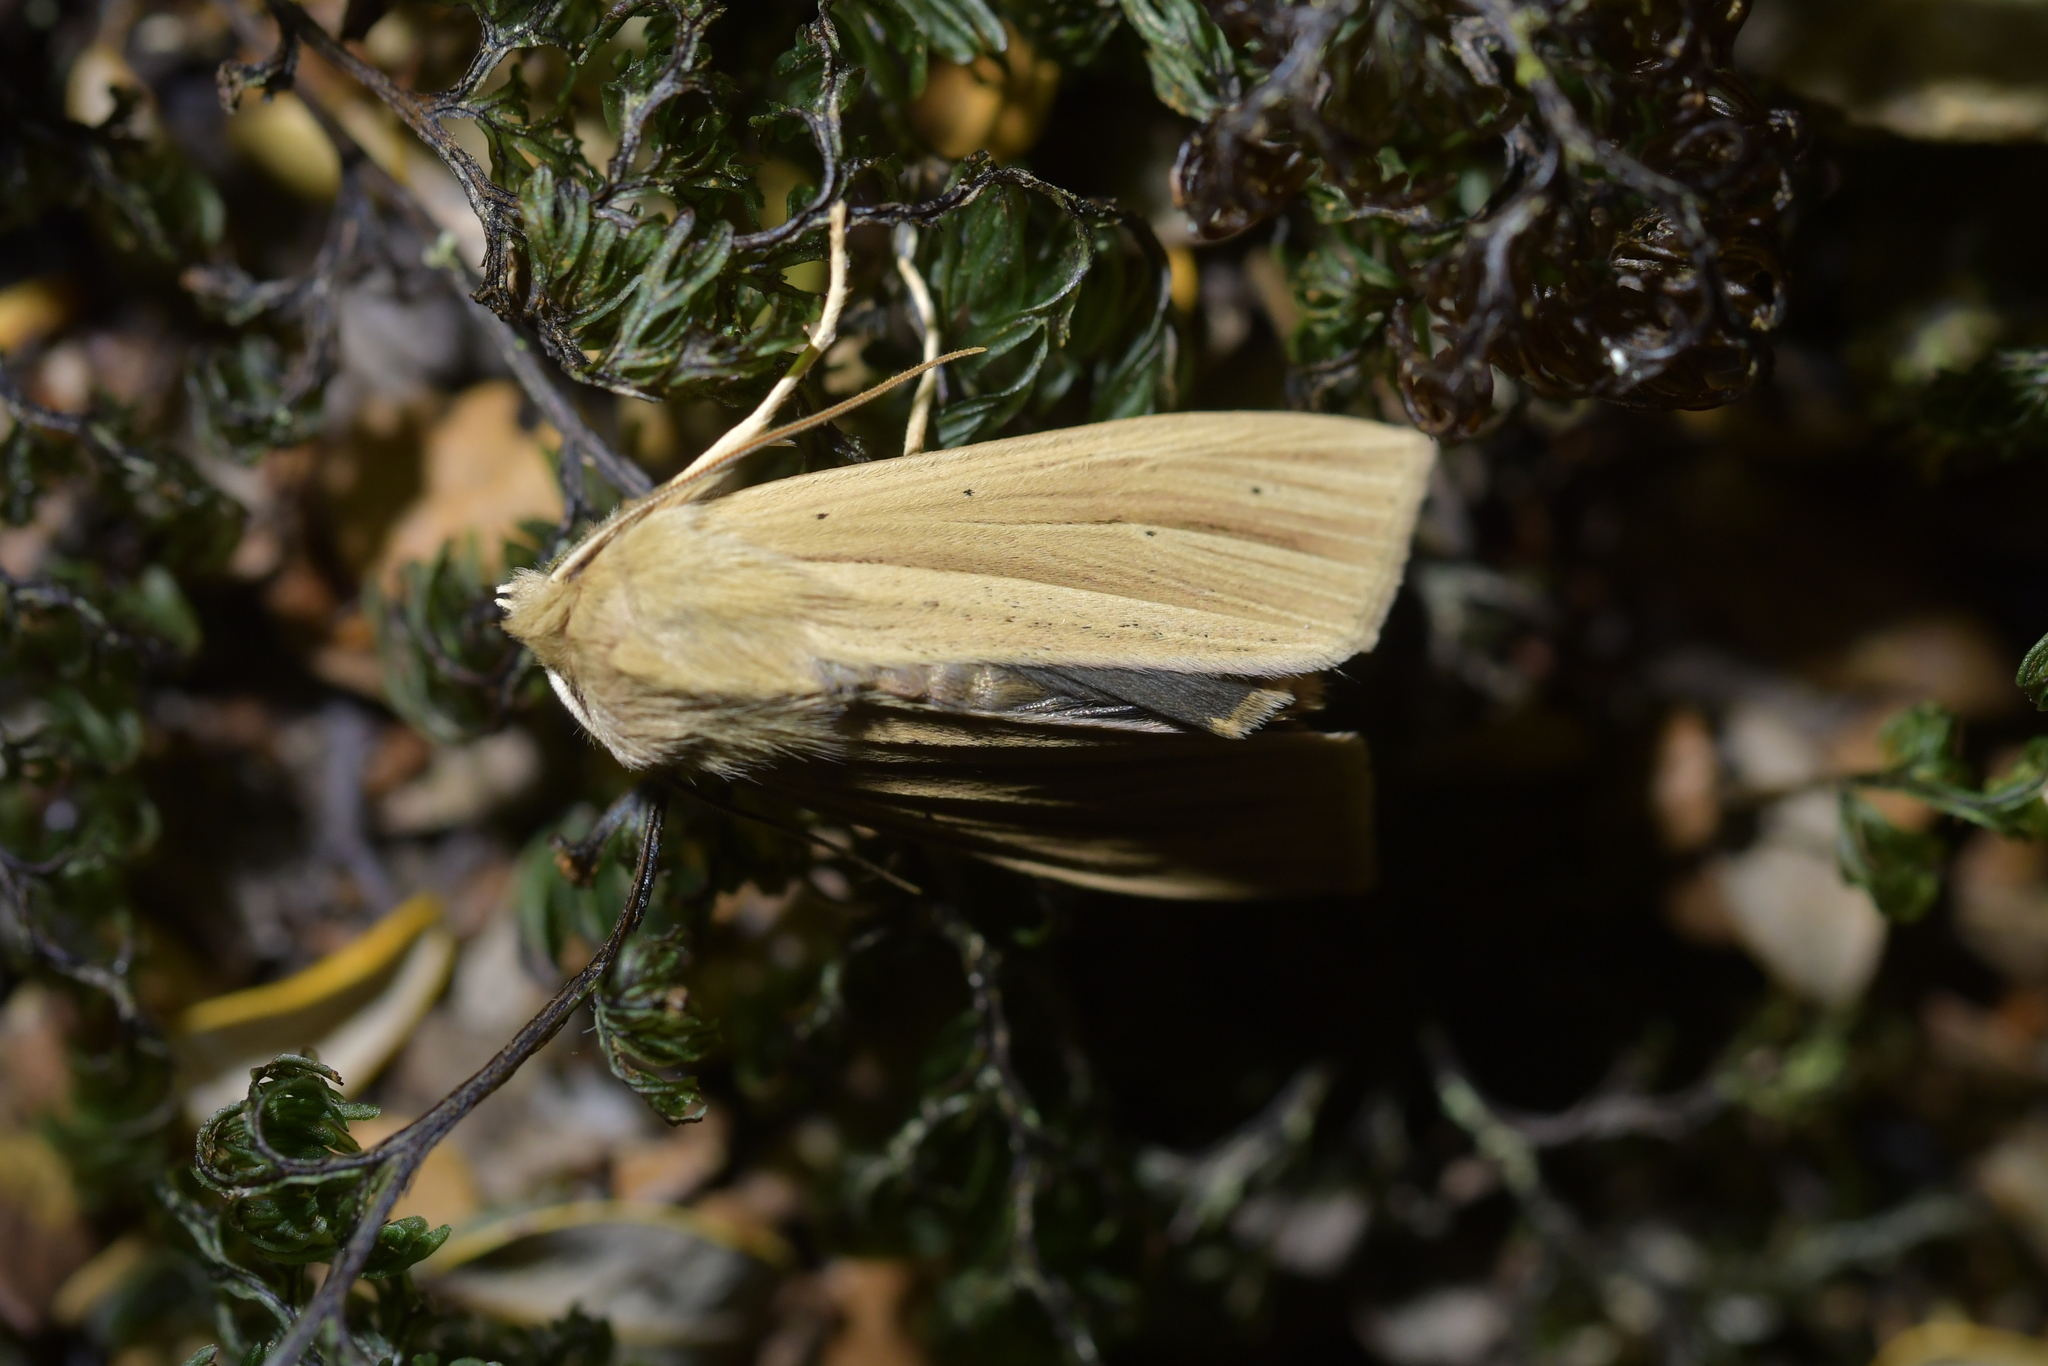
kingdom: Animalia
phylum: Arthropoda
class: Insecta
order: Lepidoptera
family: Noctuidae
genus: Ichneutica
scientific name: Ichneutica sulcana
